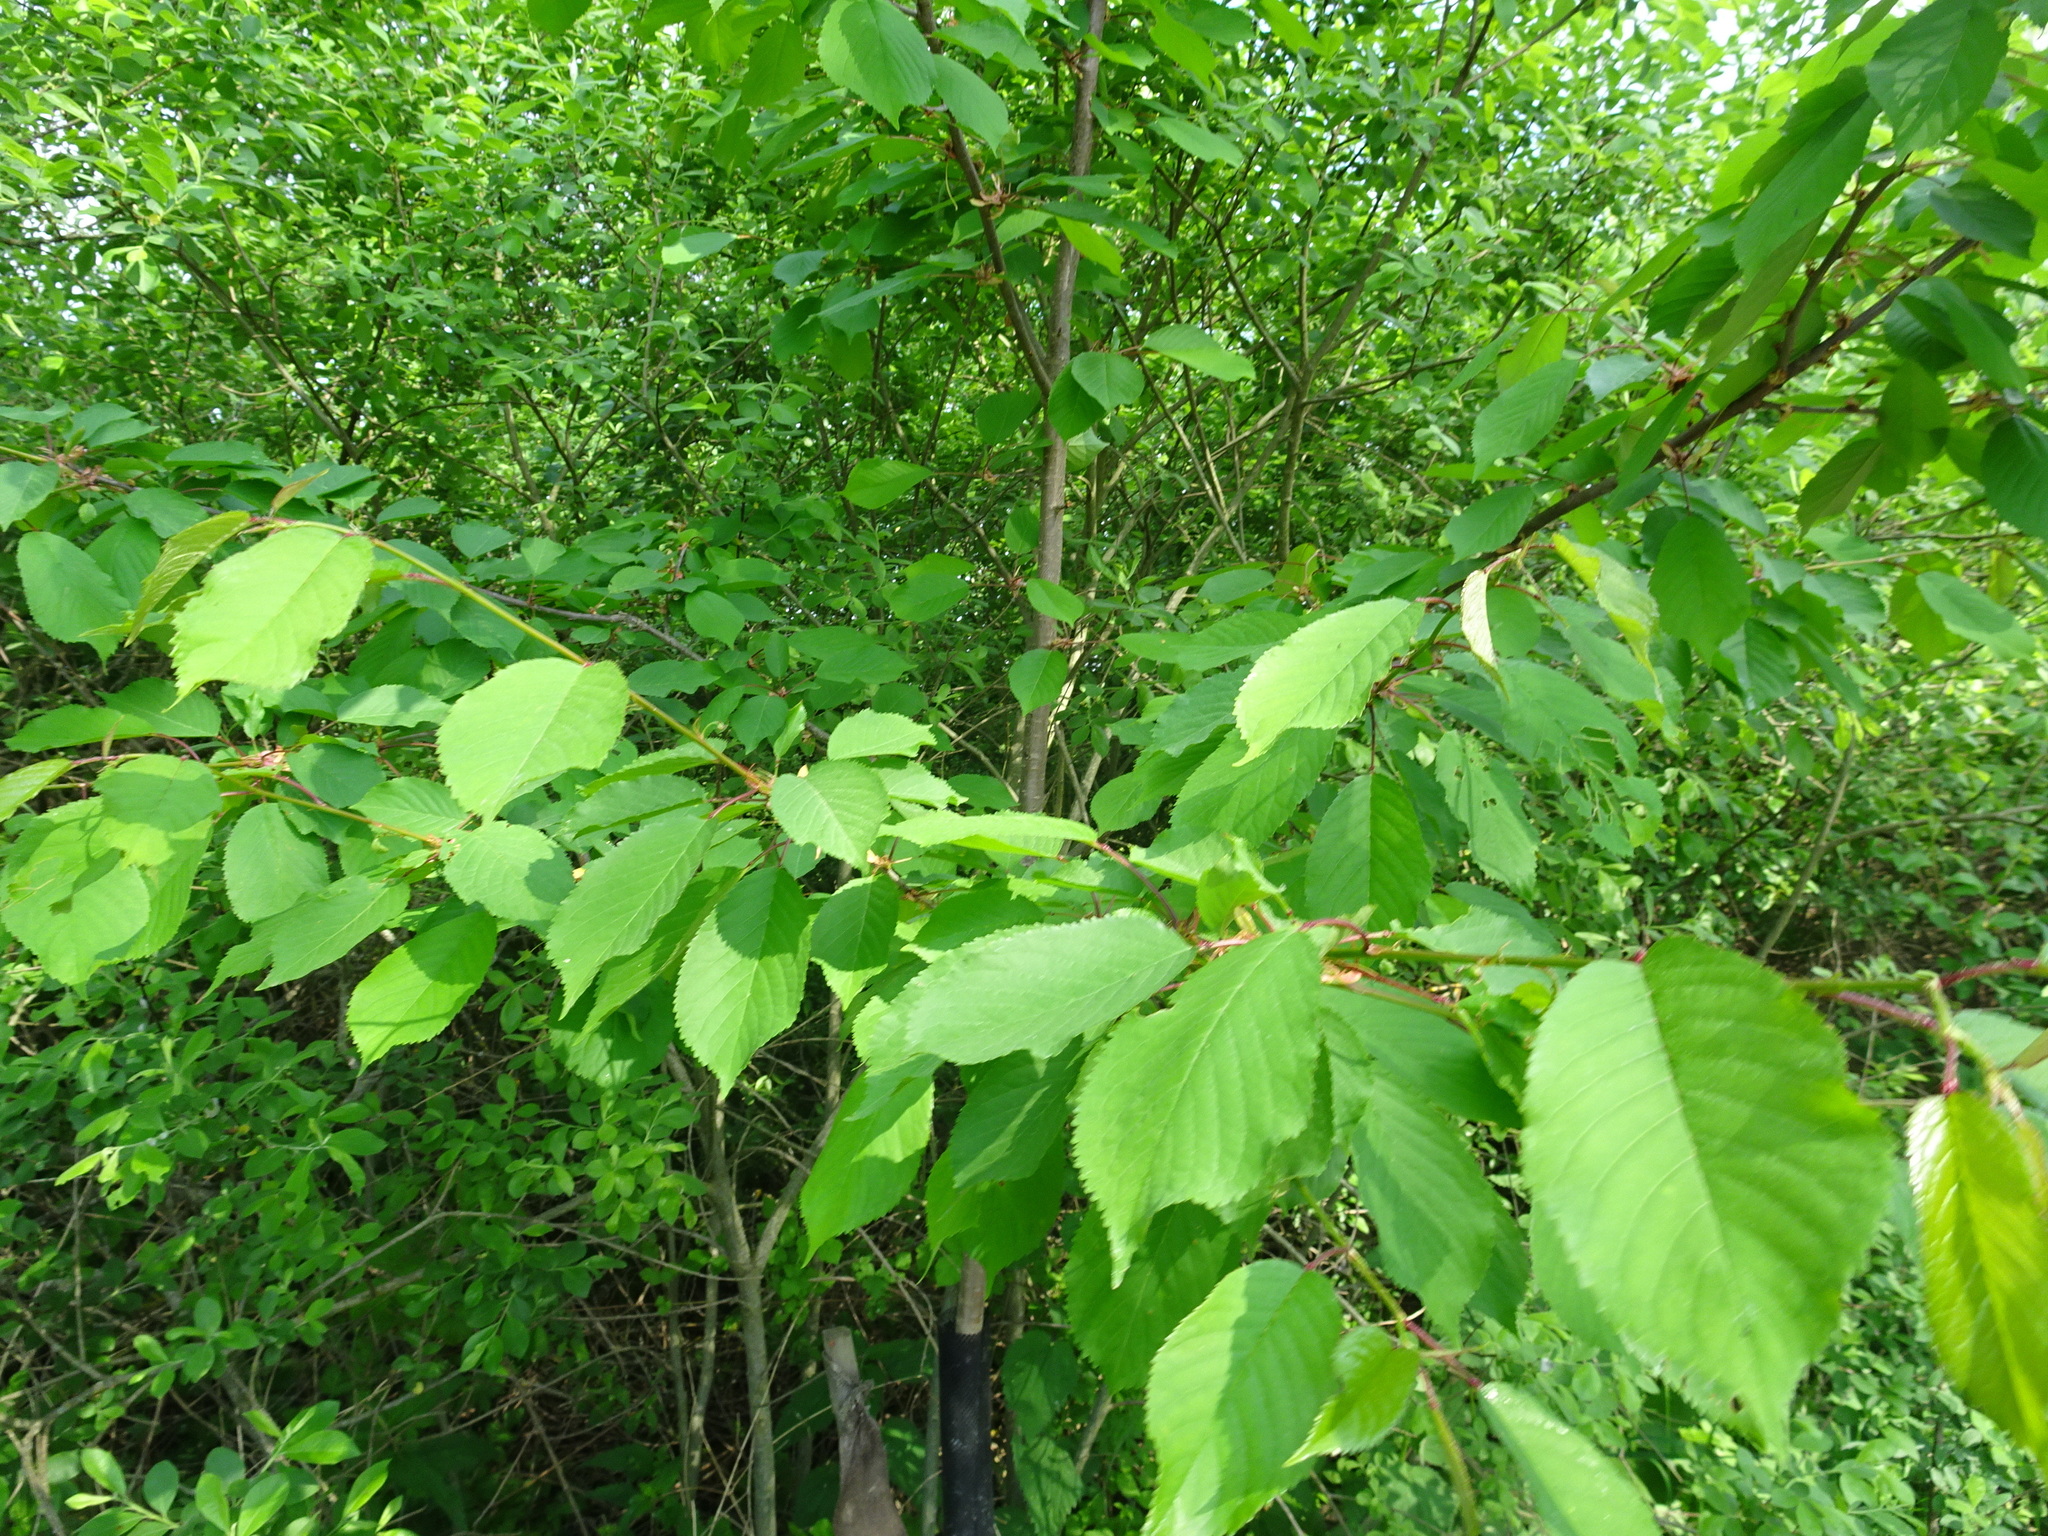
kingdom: Plantae
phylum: Tracheophyta
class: Magnoliopsida
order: Rosales
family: Rosaceae
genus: Prunus
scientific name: Prunus avium
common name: Sweet cherry
